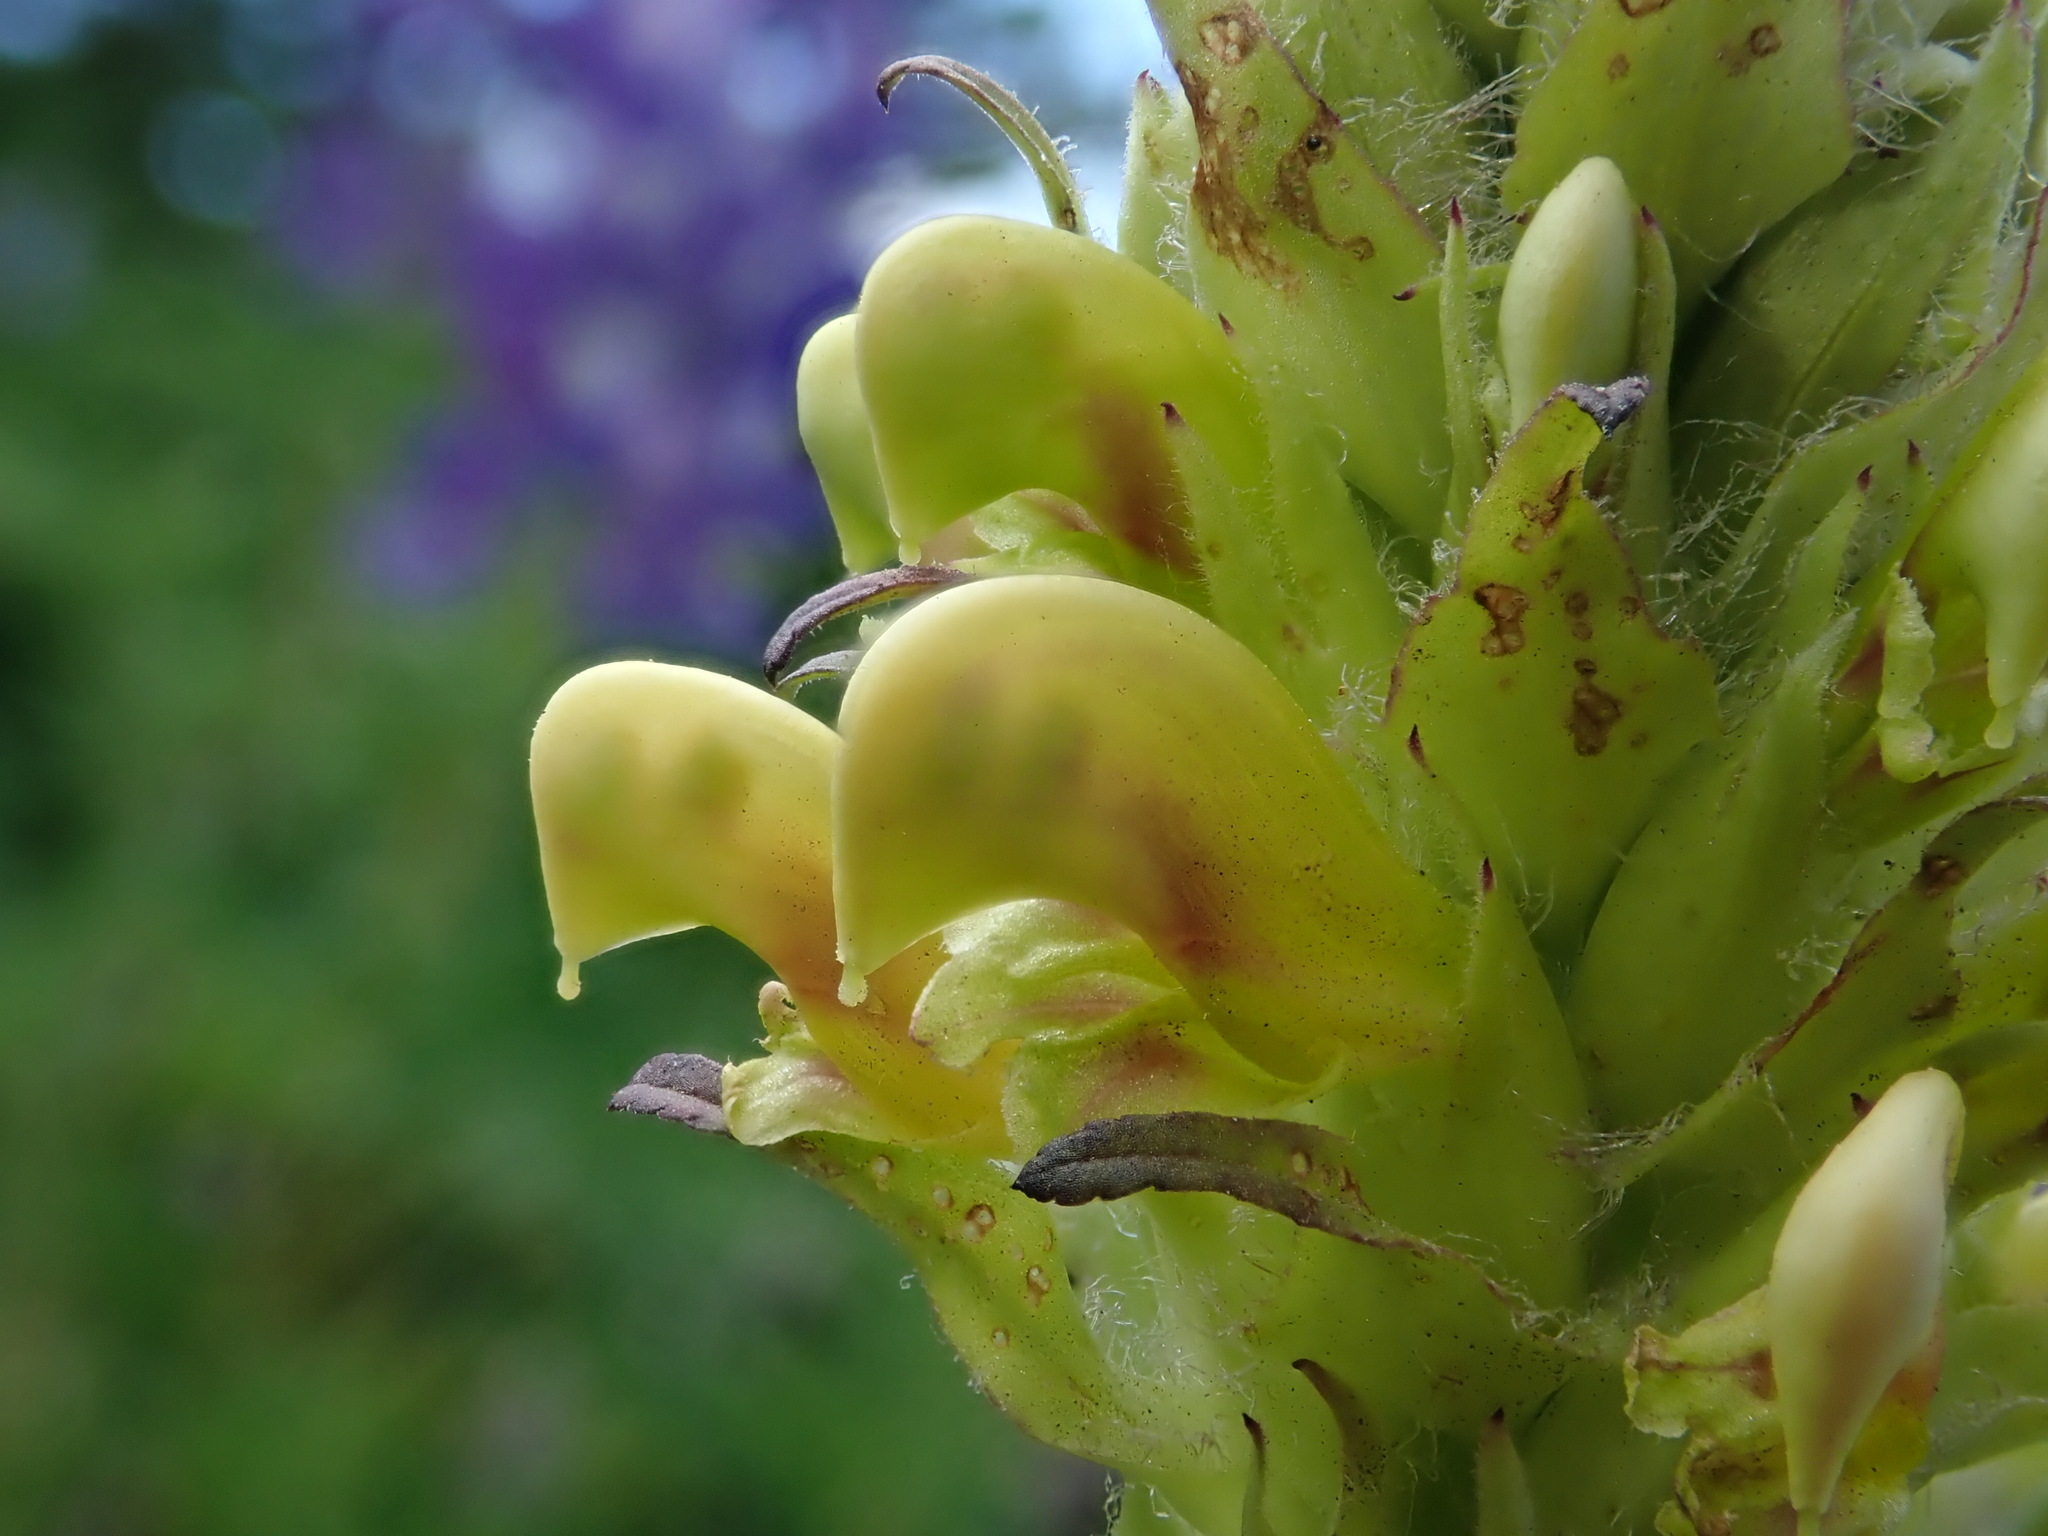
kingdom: Plantae
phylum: Tracheophyta
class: Magnoliopsida
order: Lamiales
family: Orobanchaceae
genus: Pedicularis
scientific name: Pedicularis bracteosa
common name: Bracted lousewort
